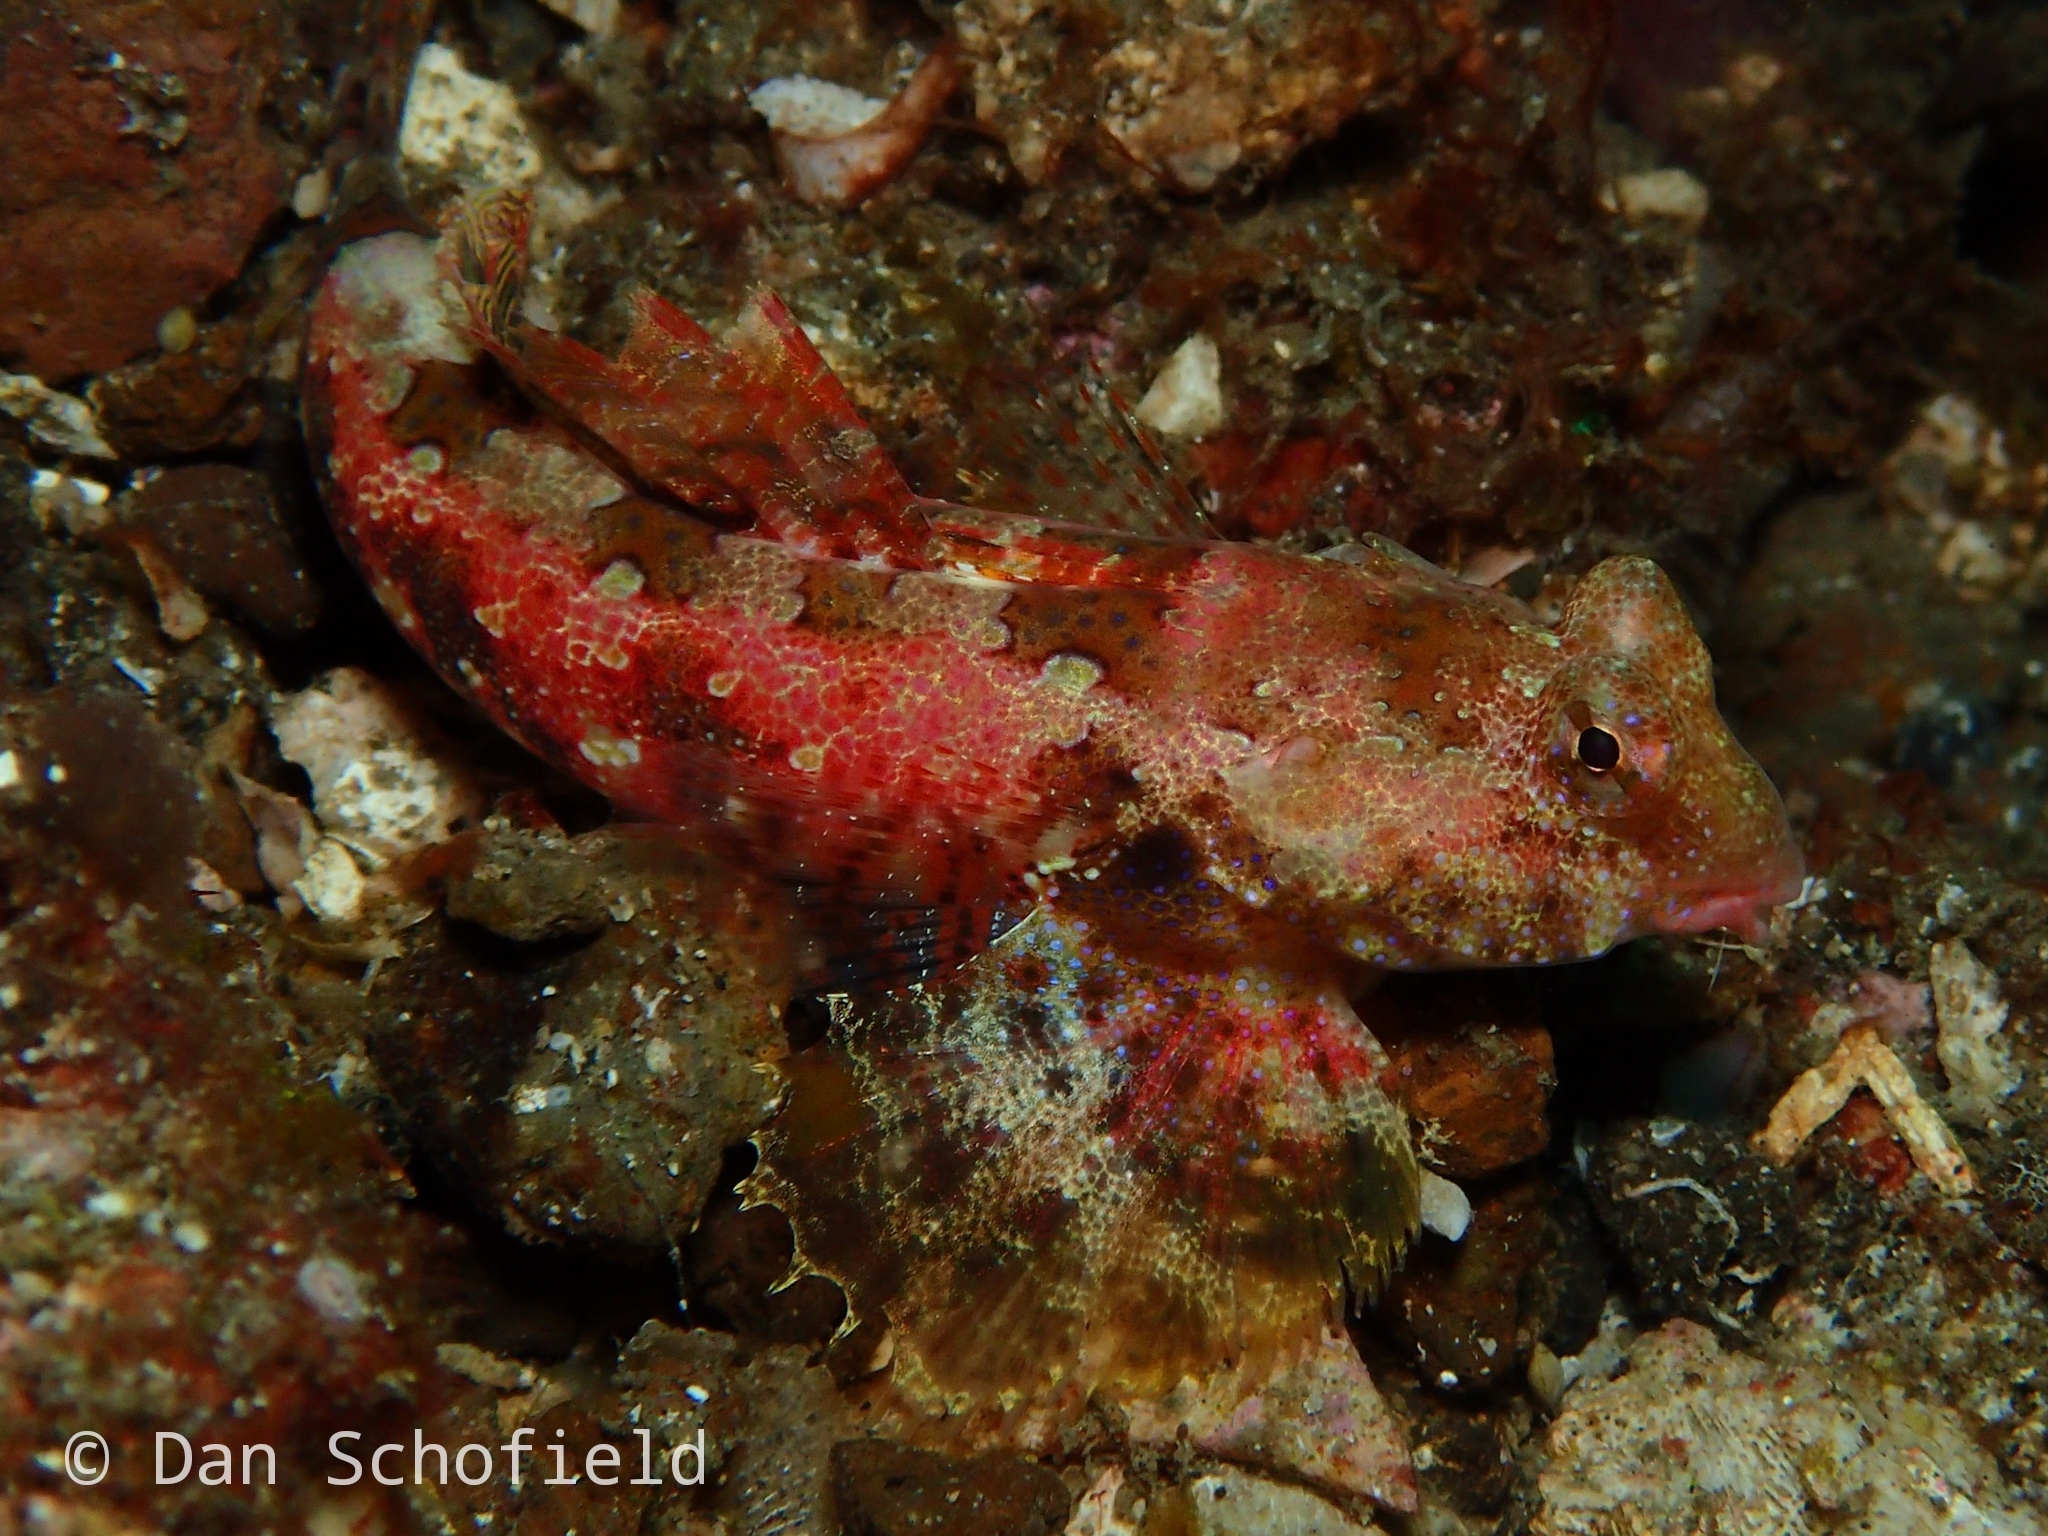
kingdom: Animalia
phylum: Chordata
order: Perciformes
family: Callionymidae
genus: Synchiropus
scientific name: Synchiropus morrisoni
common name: Morrison's dragonet
